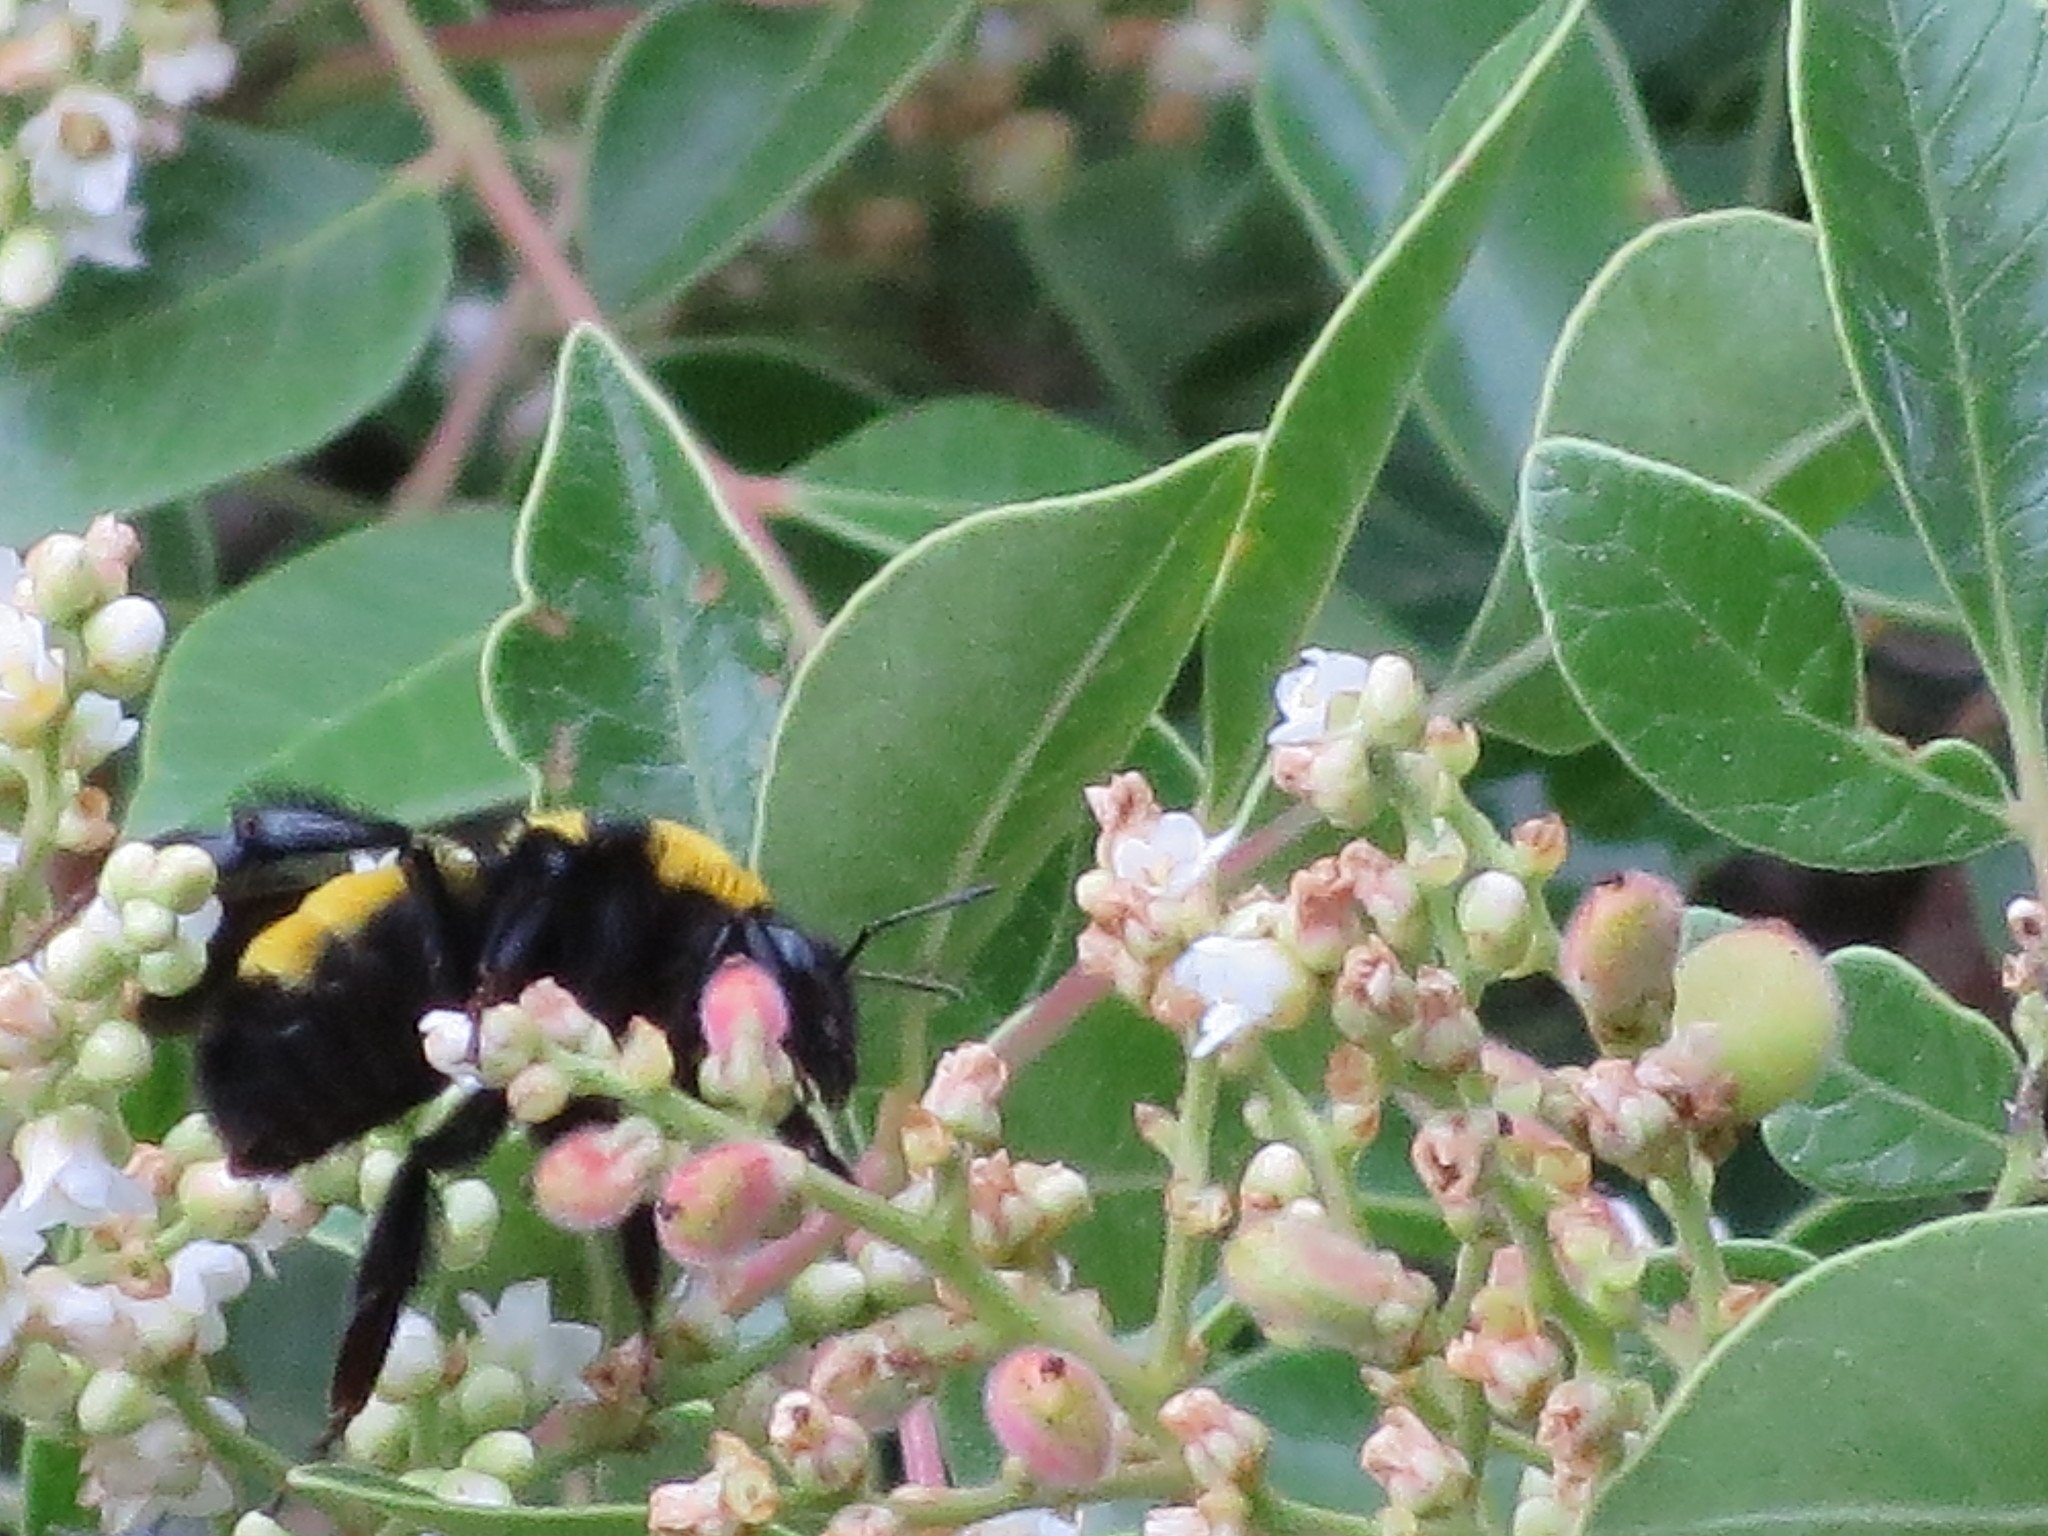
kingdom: Animalia
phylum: Arthropoda
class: Insecta
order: Hymenoptera
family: Apidae
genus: Bombus
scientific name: Bombus sonorus
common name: Sonoran bumble bee
